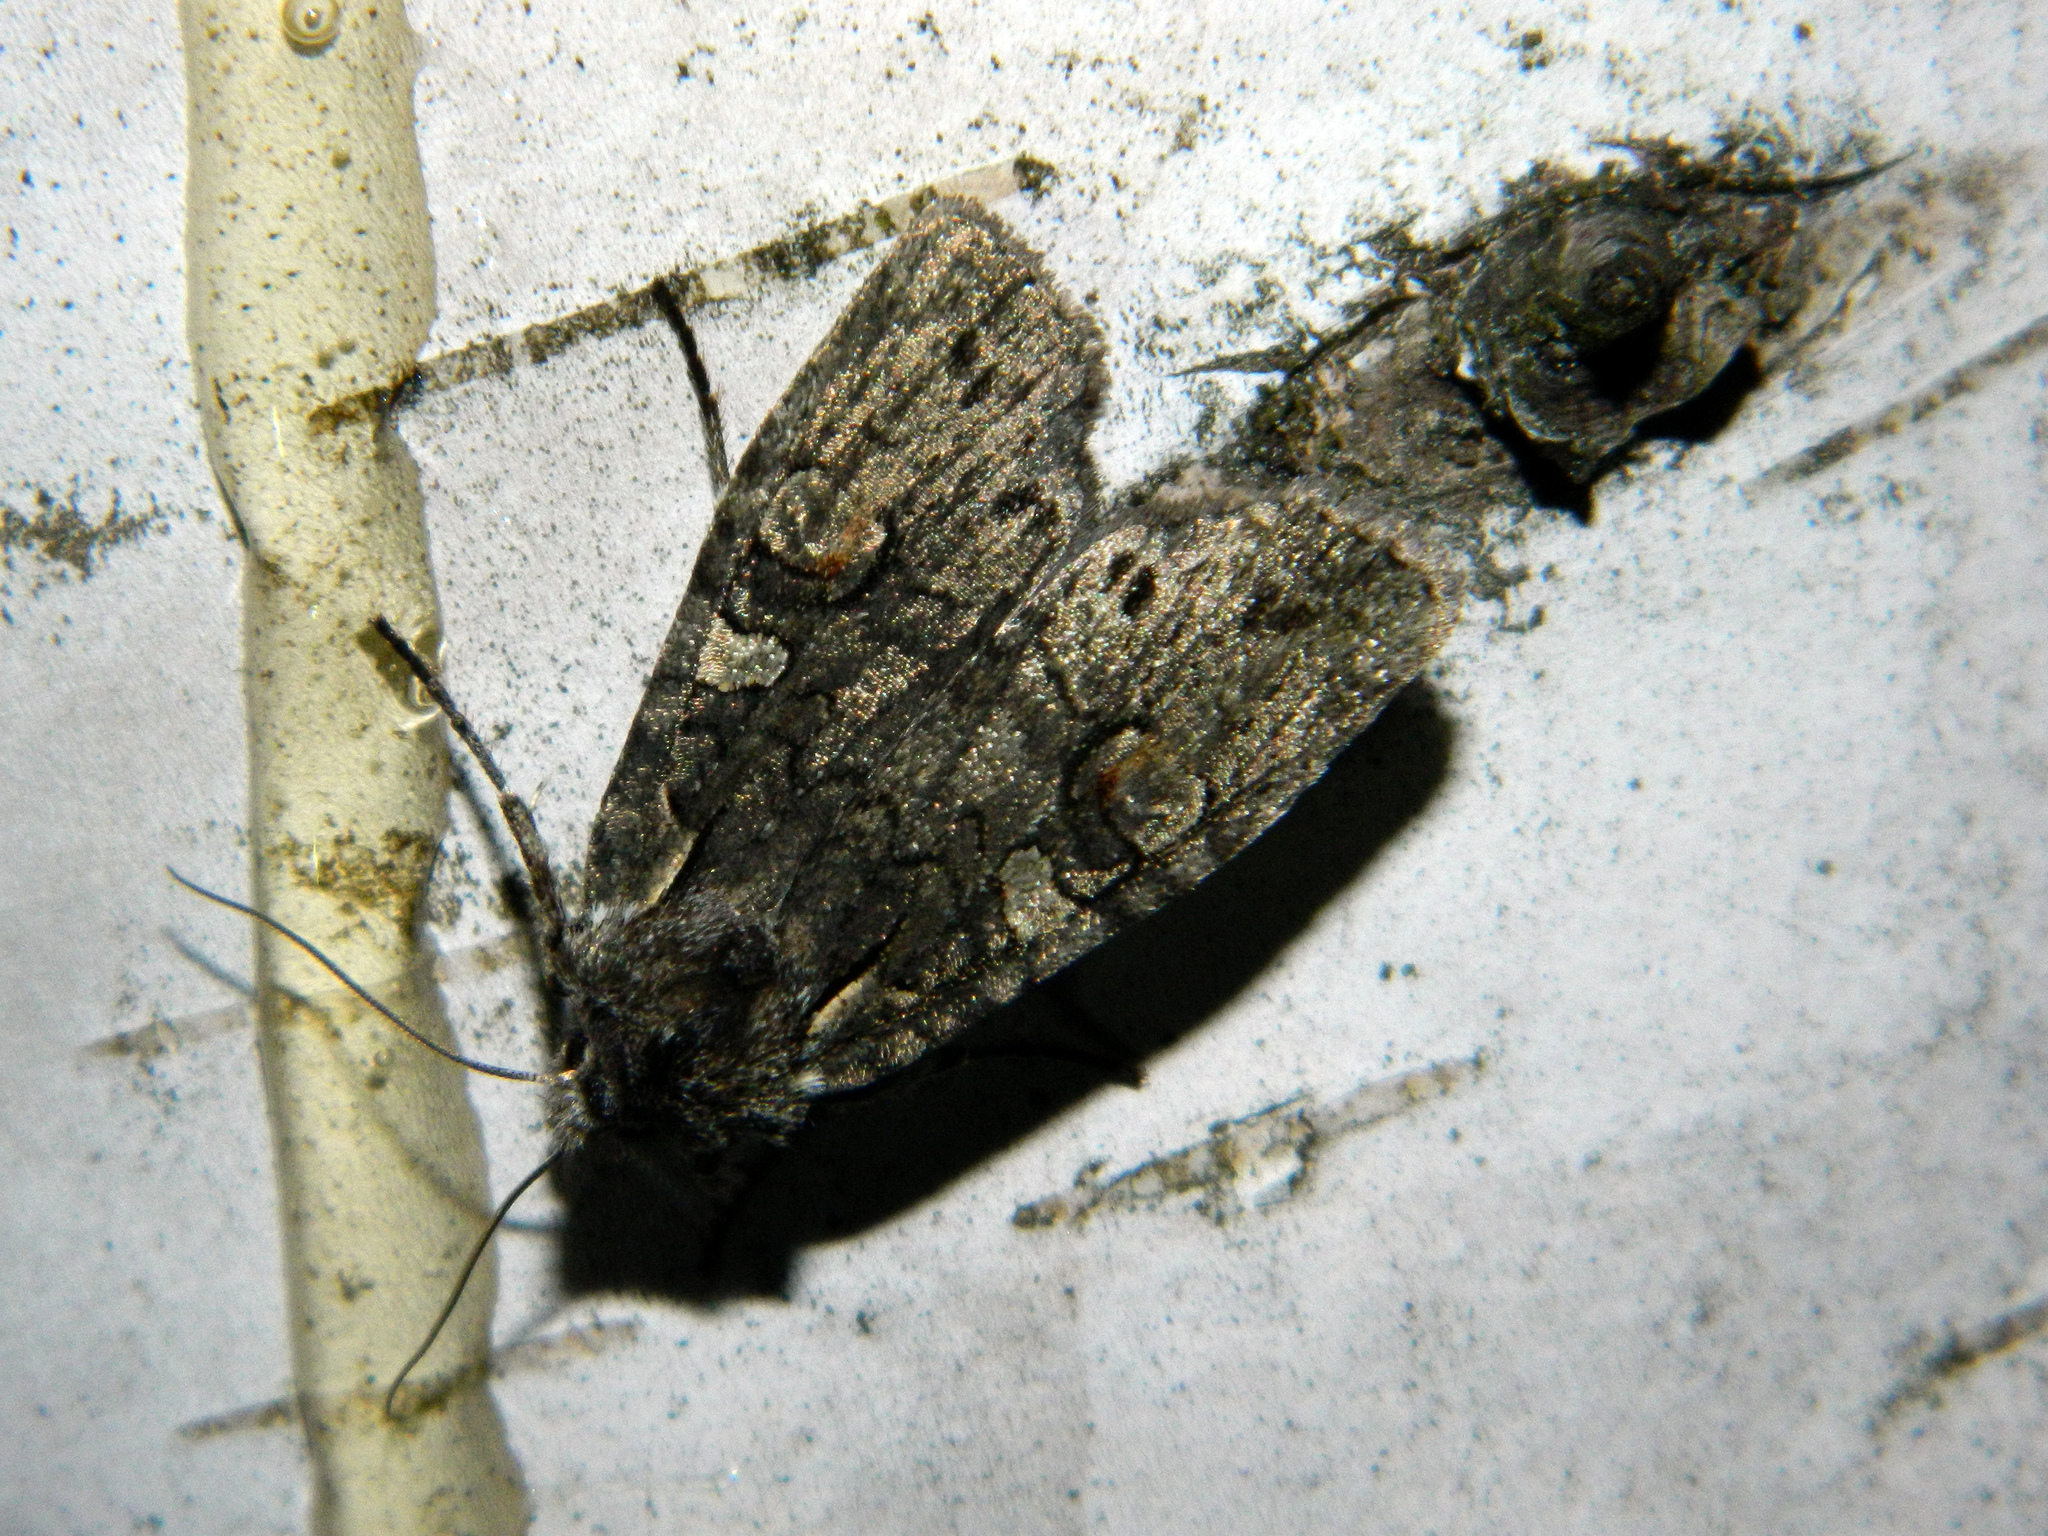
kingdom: Animalia
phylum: Arthropoda
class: Insecta
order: Lepidoptera
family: Noctuidae
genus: Lithophane
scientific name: Lithophane pexata
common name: Plush-naped pinion moth
